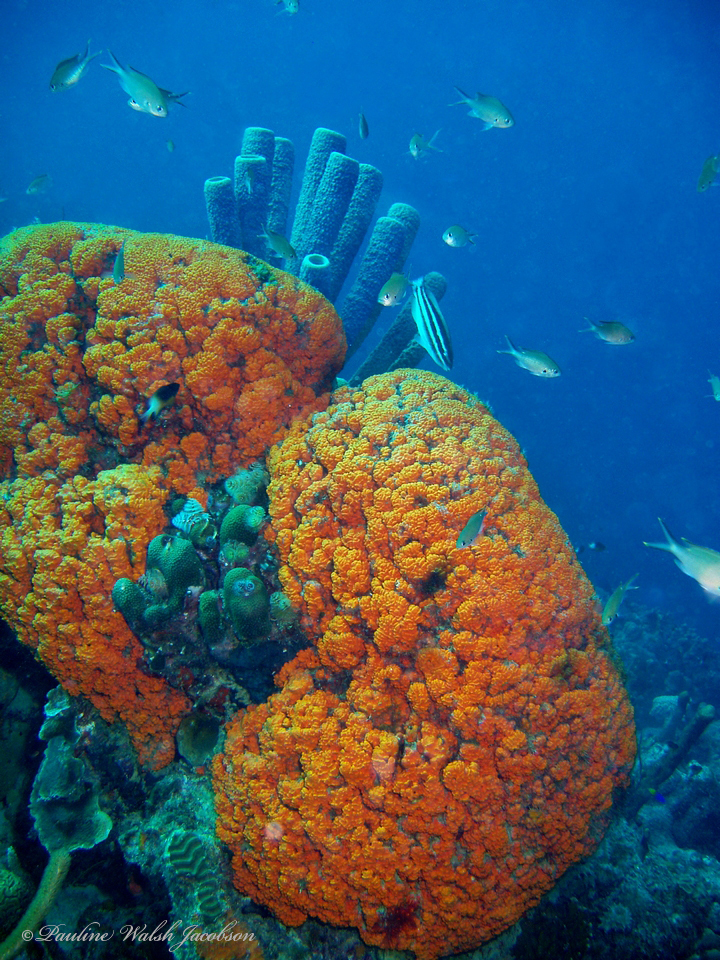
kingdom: Animalia
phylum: Porifera
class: Demospongiae
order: Agelasida
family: Agelasidae
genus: Agelas
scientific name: Agelas clathrodes
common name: Orange elephant ear sponge
